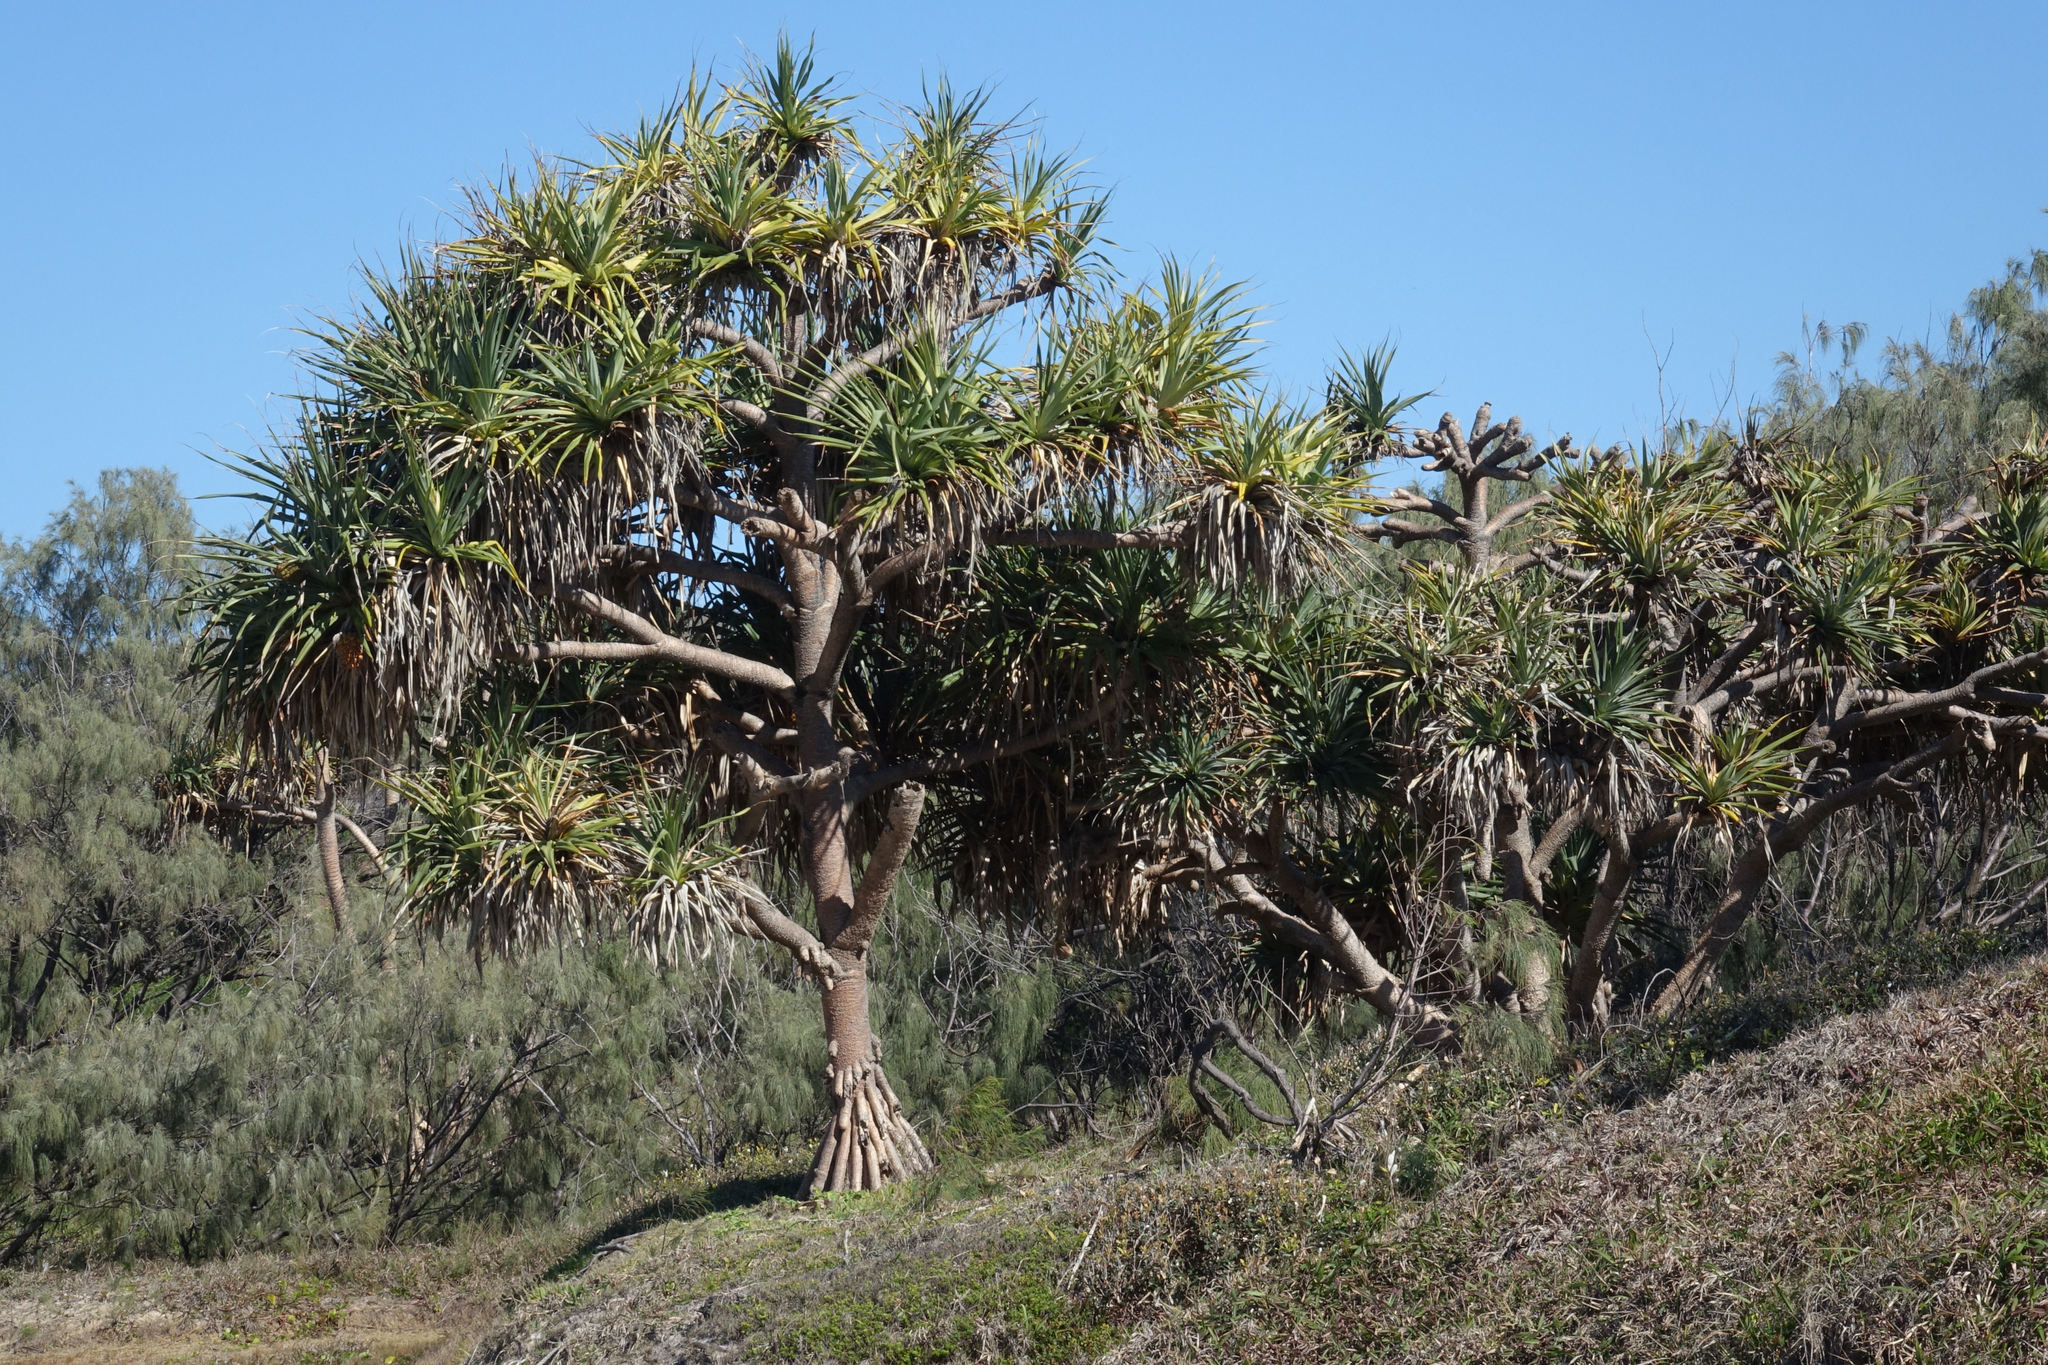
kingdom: Plantae
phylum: Tracheophyta
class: Liliopsida
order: Pandanales
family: Pandanaceae
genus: Pandanus
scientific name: Pandanus tectorius
